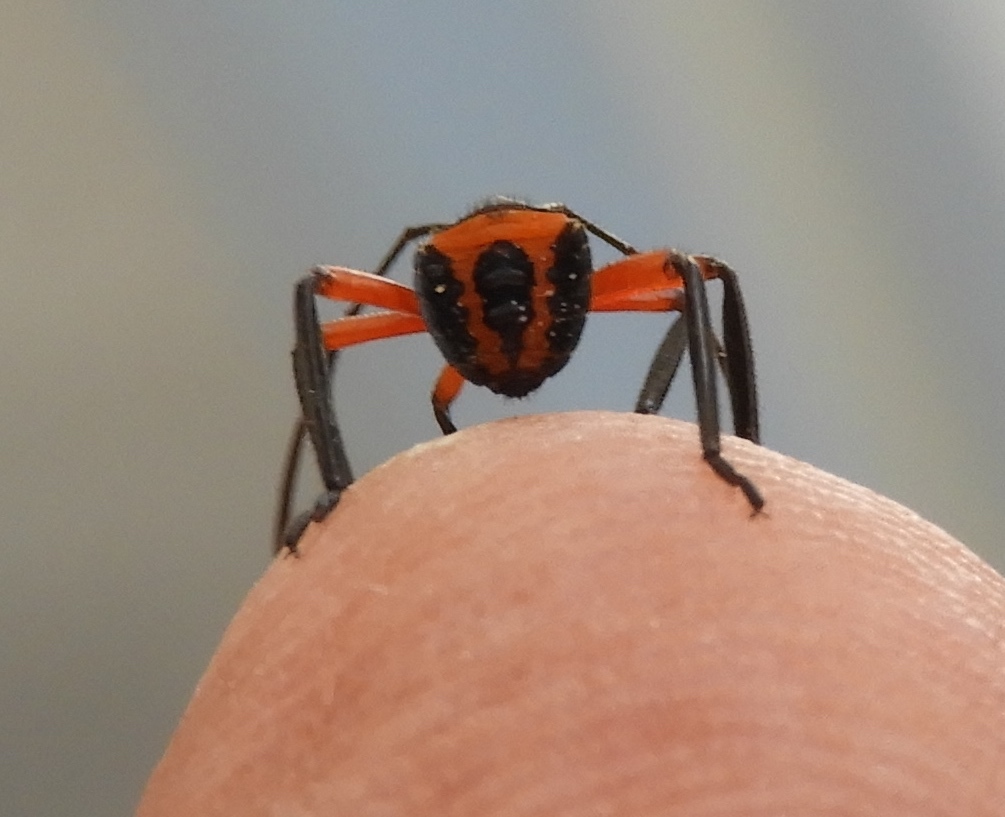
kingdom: Animalia
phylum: Arthropoda
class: Insecta
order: Hemiptera
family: Coreidae
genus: Pachylis
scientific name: Pachylis
